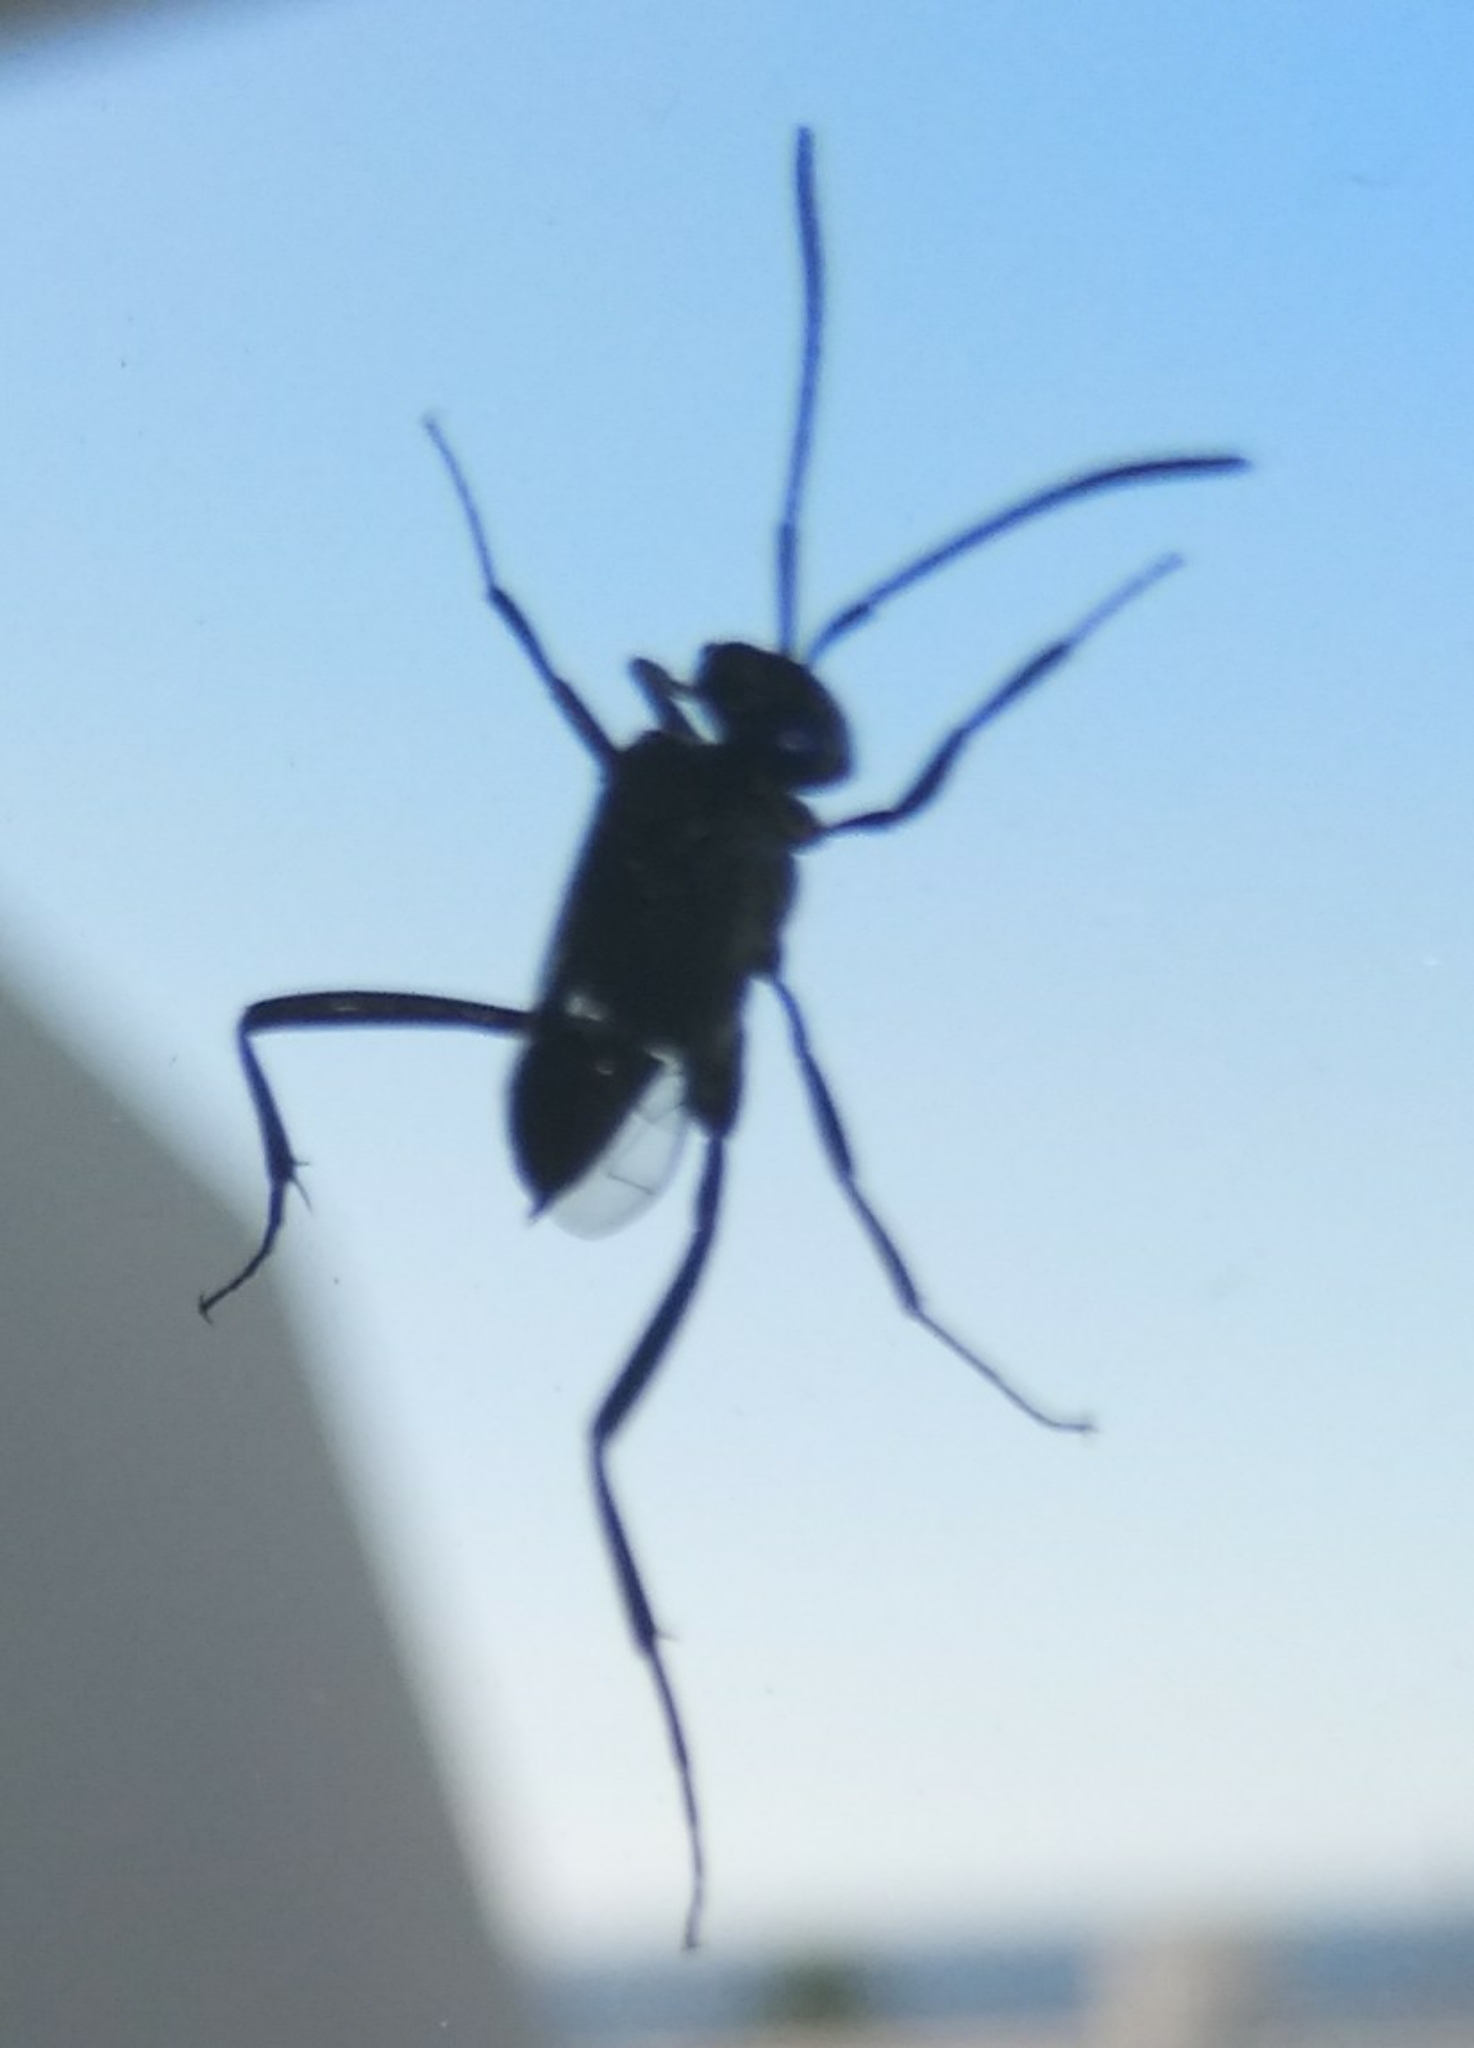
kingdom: Animalia
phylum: Arthropoda
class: Insecta
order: Hymenoptera
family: Evaniidae
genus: Evania
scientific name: Evania appendigaster
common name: Ensign wasp
